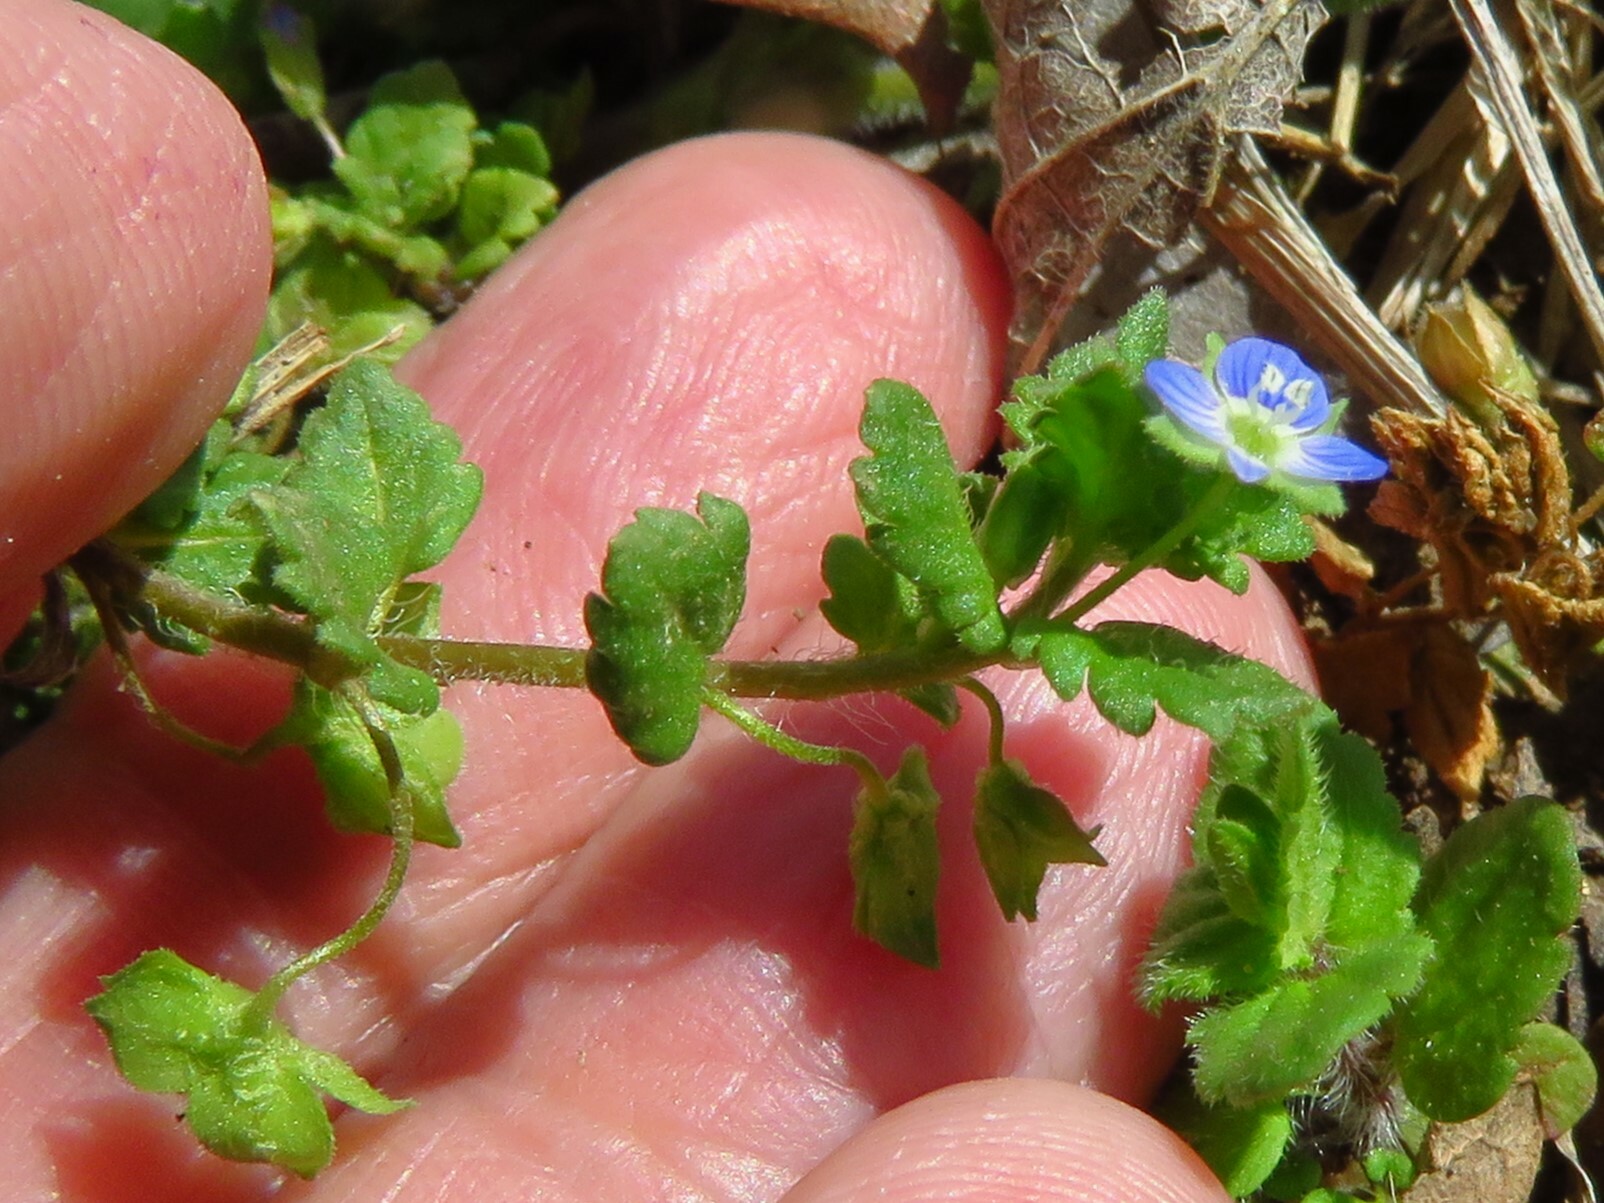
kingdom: Plantae
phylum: Tracheophyta
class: Magnoliopsida
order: Lamiales
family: Plantaginaceae
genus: Veronica
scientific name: Veronica polita
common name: Grey field-speedwell
